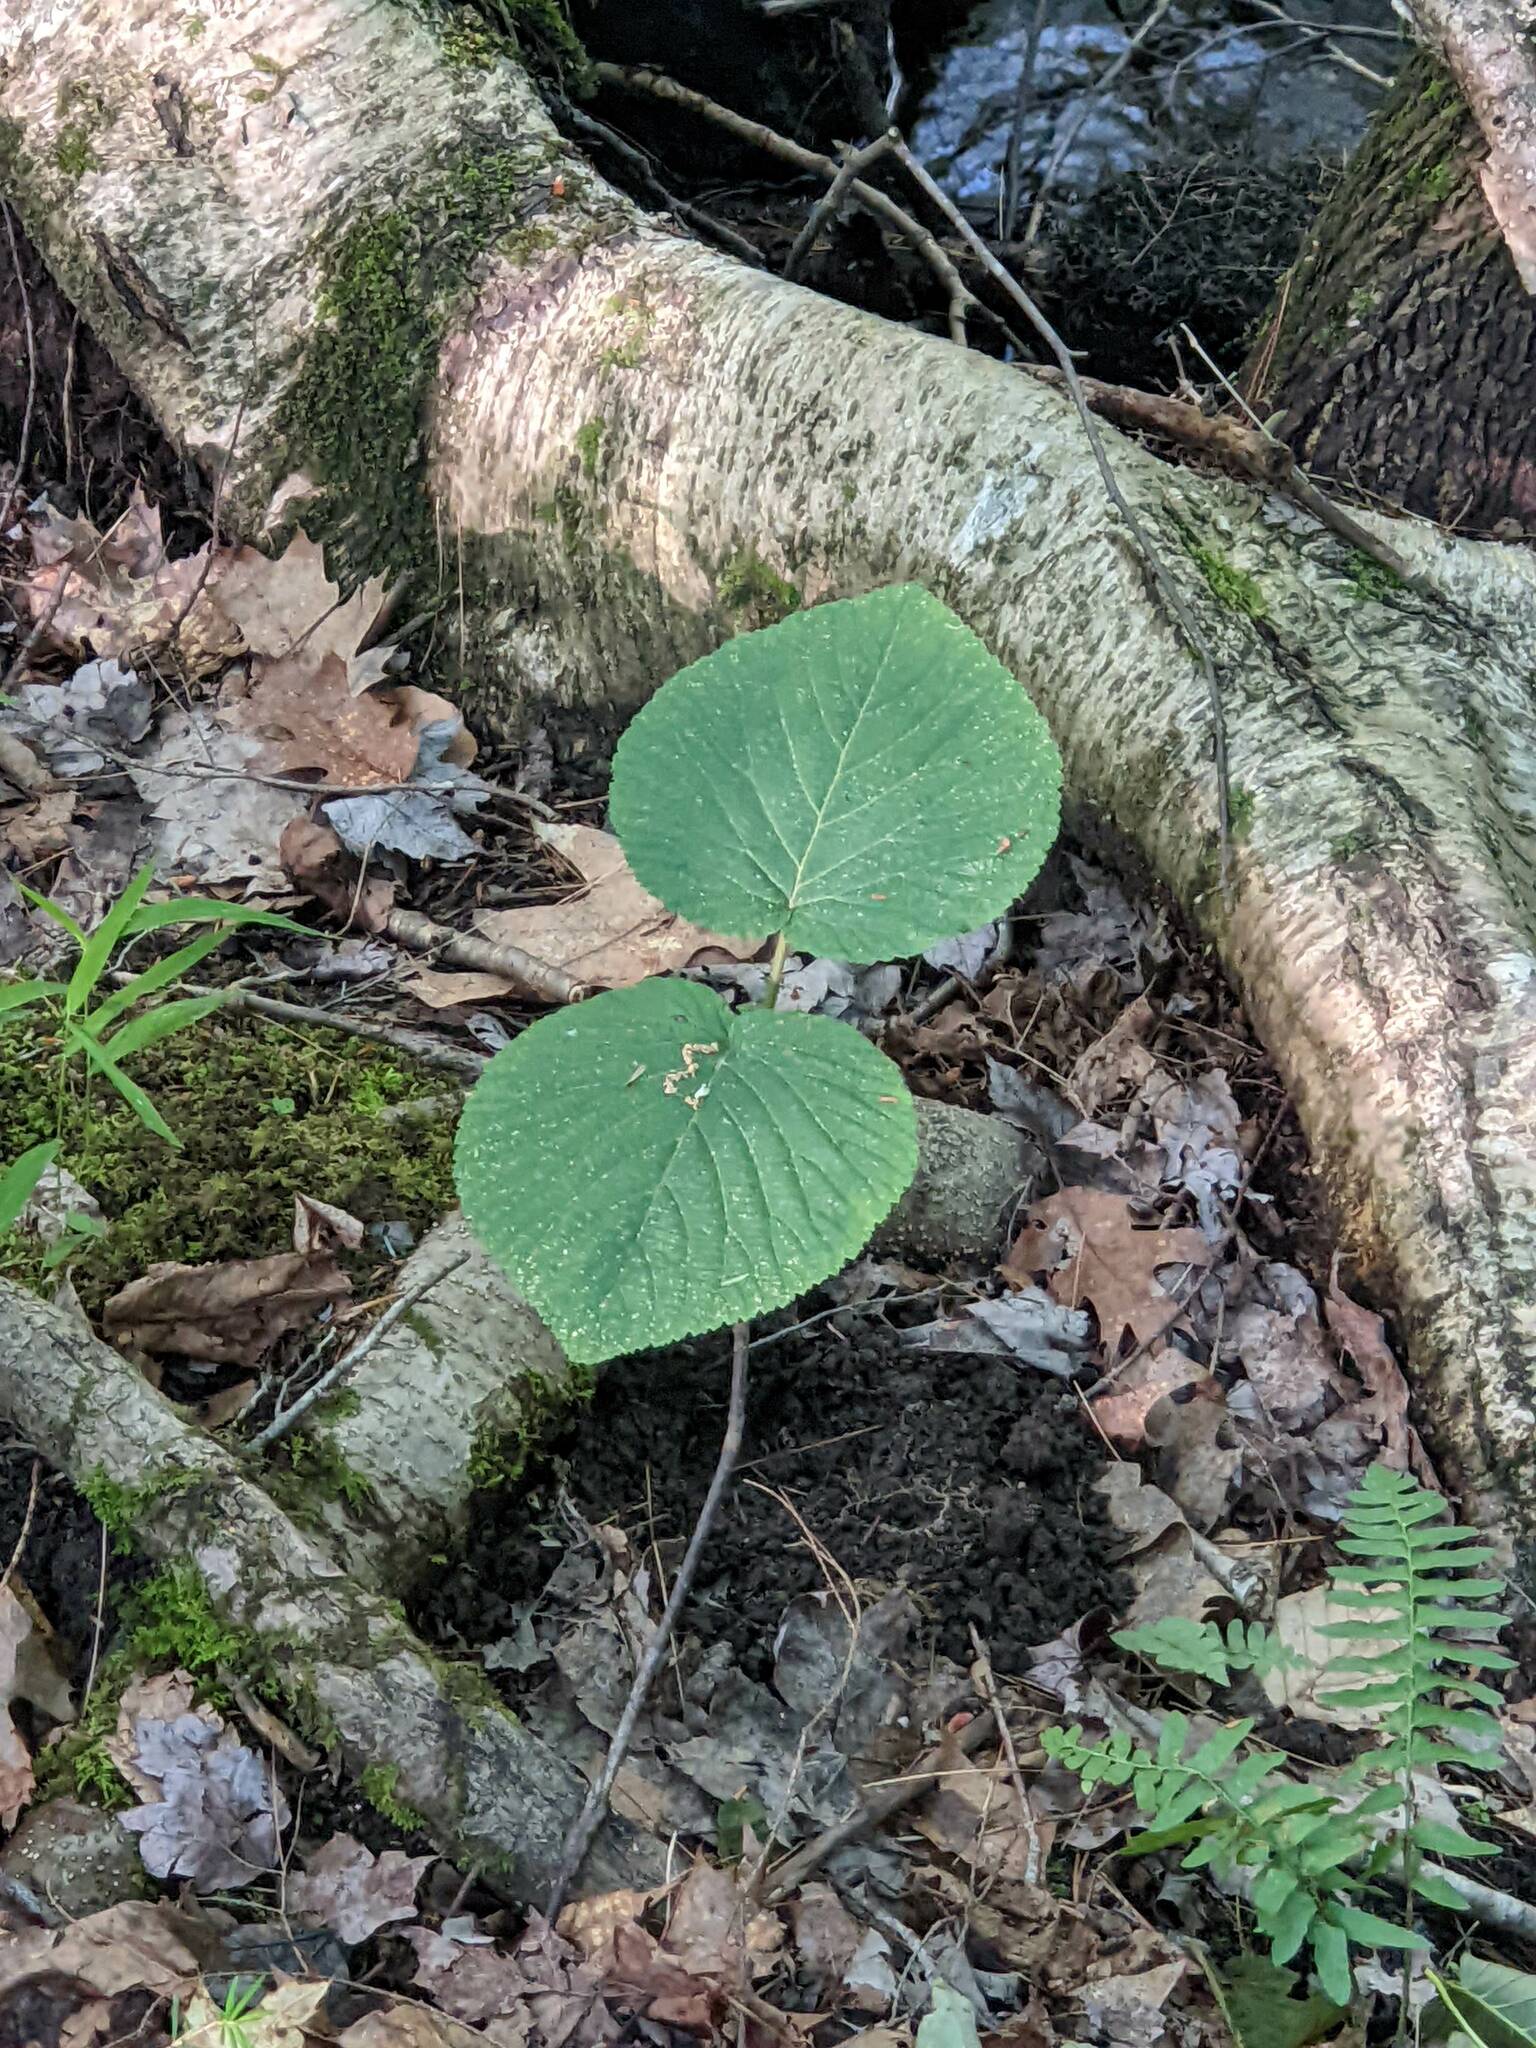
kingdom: Plantae
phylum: Tracheophyta
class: Magnoliopsida
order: Dipsacales
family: Viburnaceae
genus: Viburnum
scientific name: Viburnum lantanoides
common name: Hobblebush
